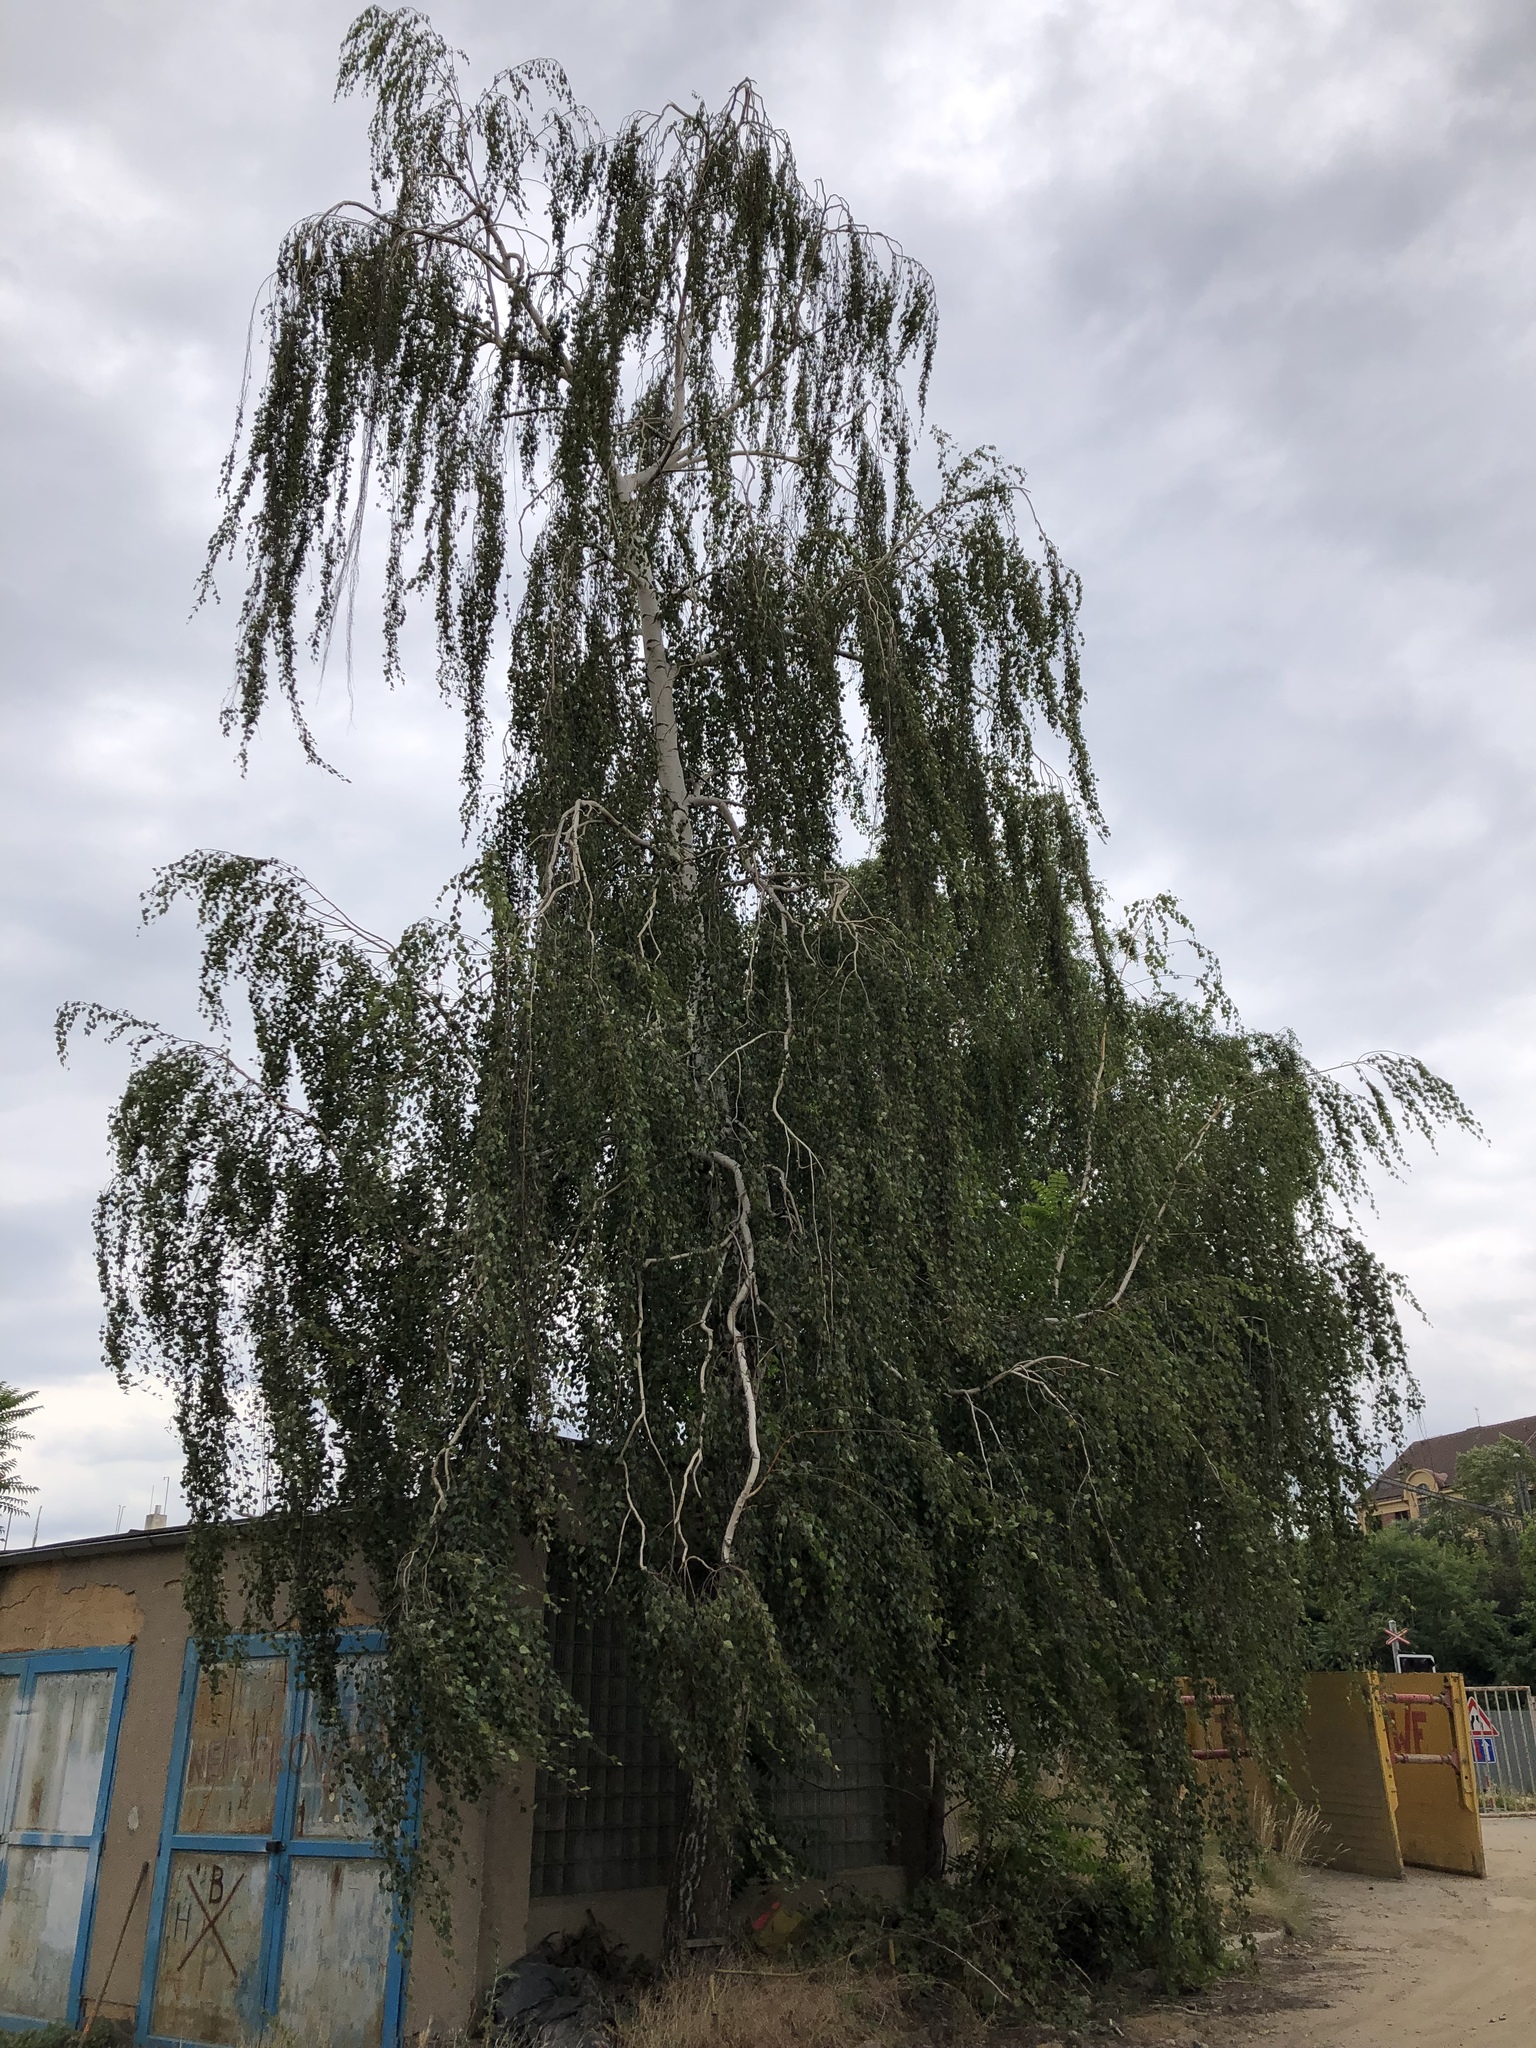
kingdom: Plantae
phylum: Tracheophyta
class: Magnoliopsida
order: Fagales
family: Betulaceae
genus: Betula
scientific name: Betula pendula
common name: Silver birch
